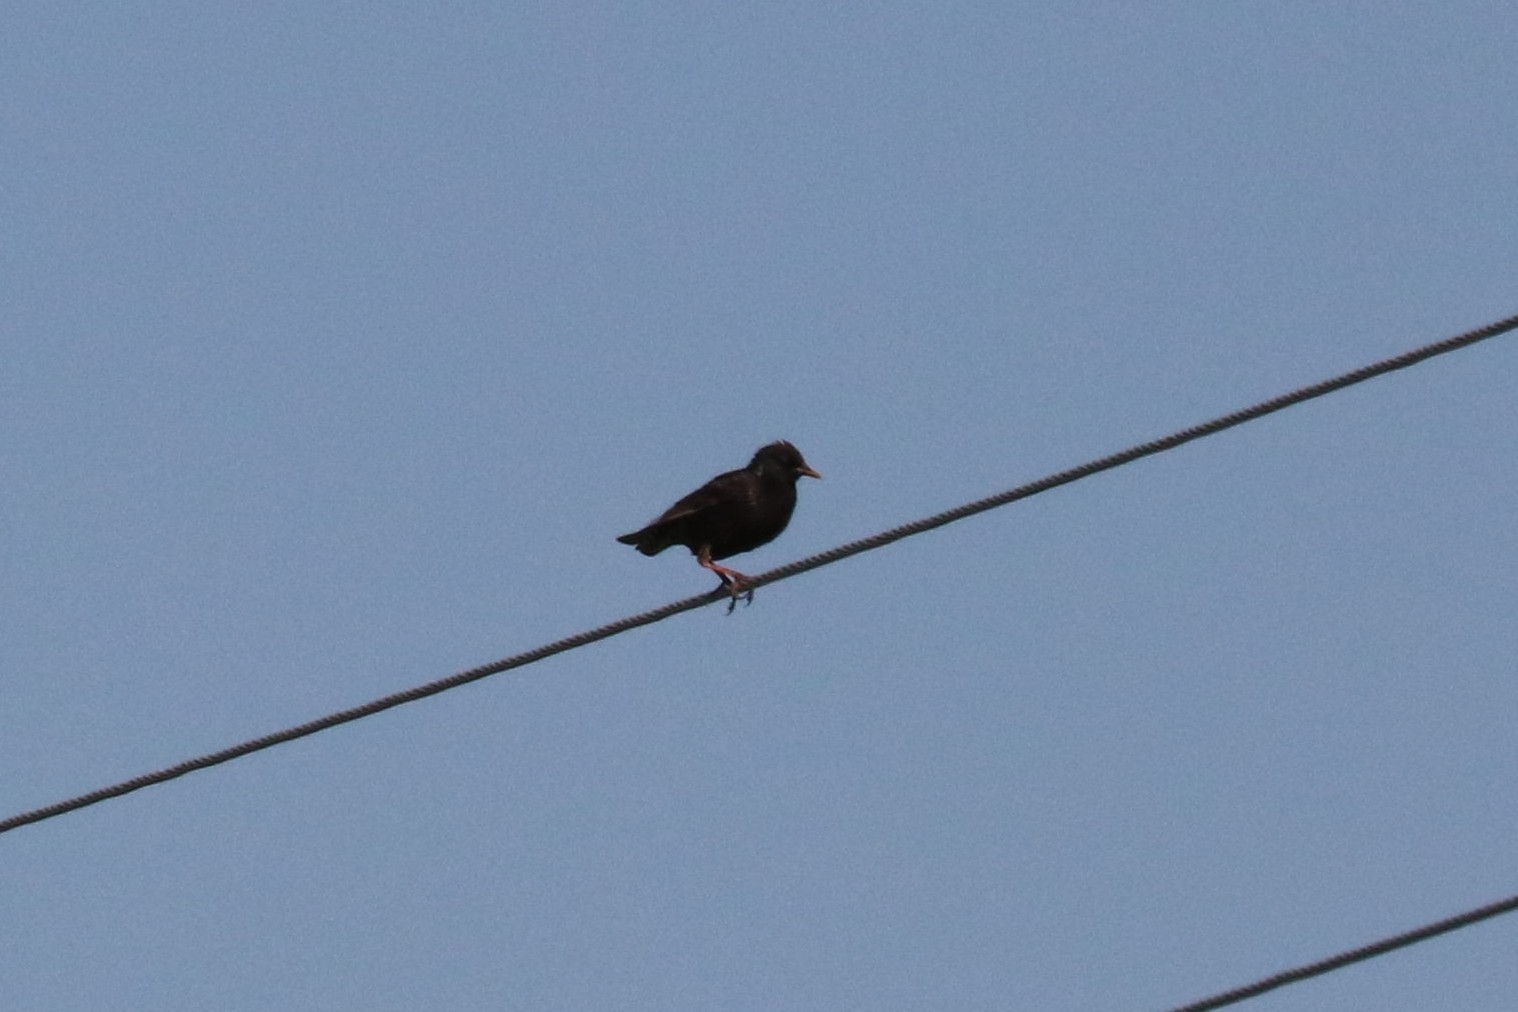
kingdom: Animalia
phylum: Chordata
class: Aves
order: Passeriformes
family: Sturnidae
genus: Sturnus
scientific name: Sturnus vulgaris
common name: Common starling
